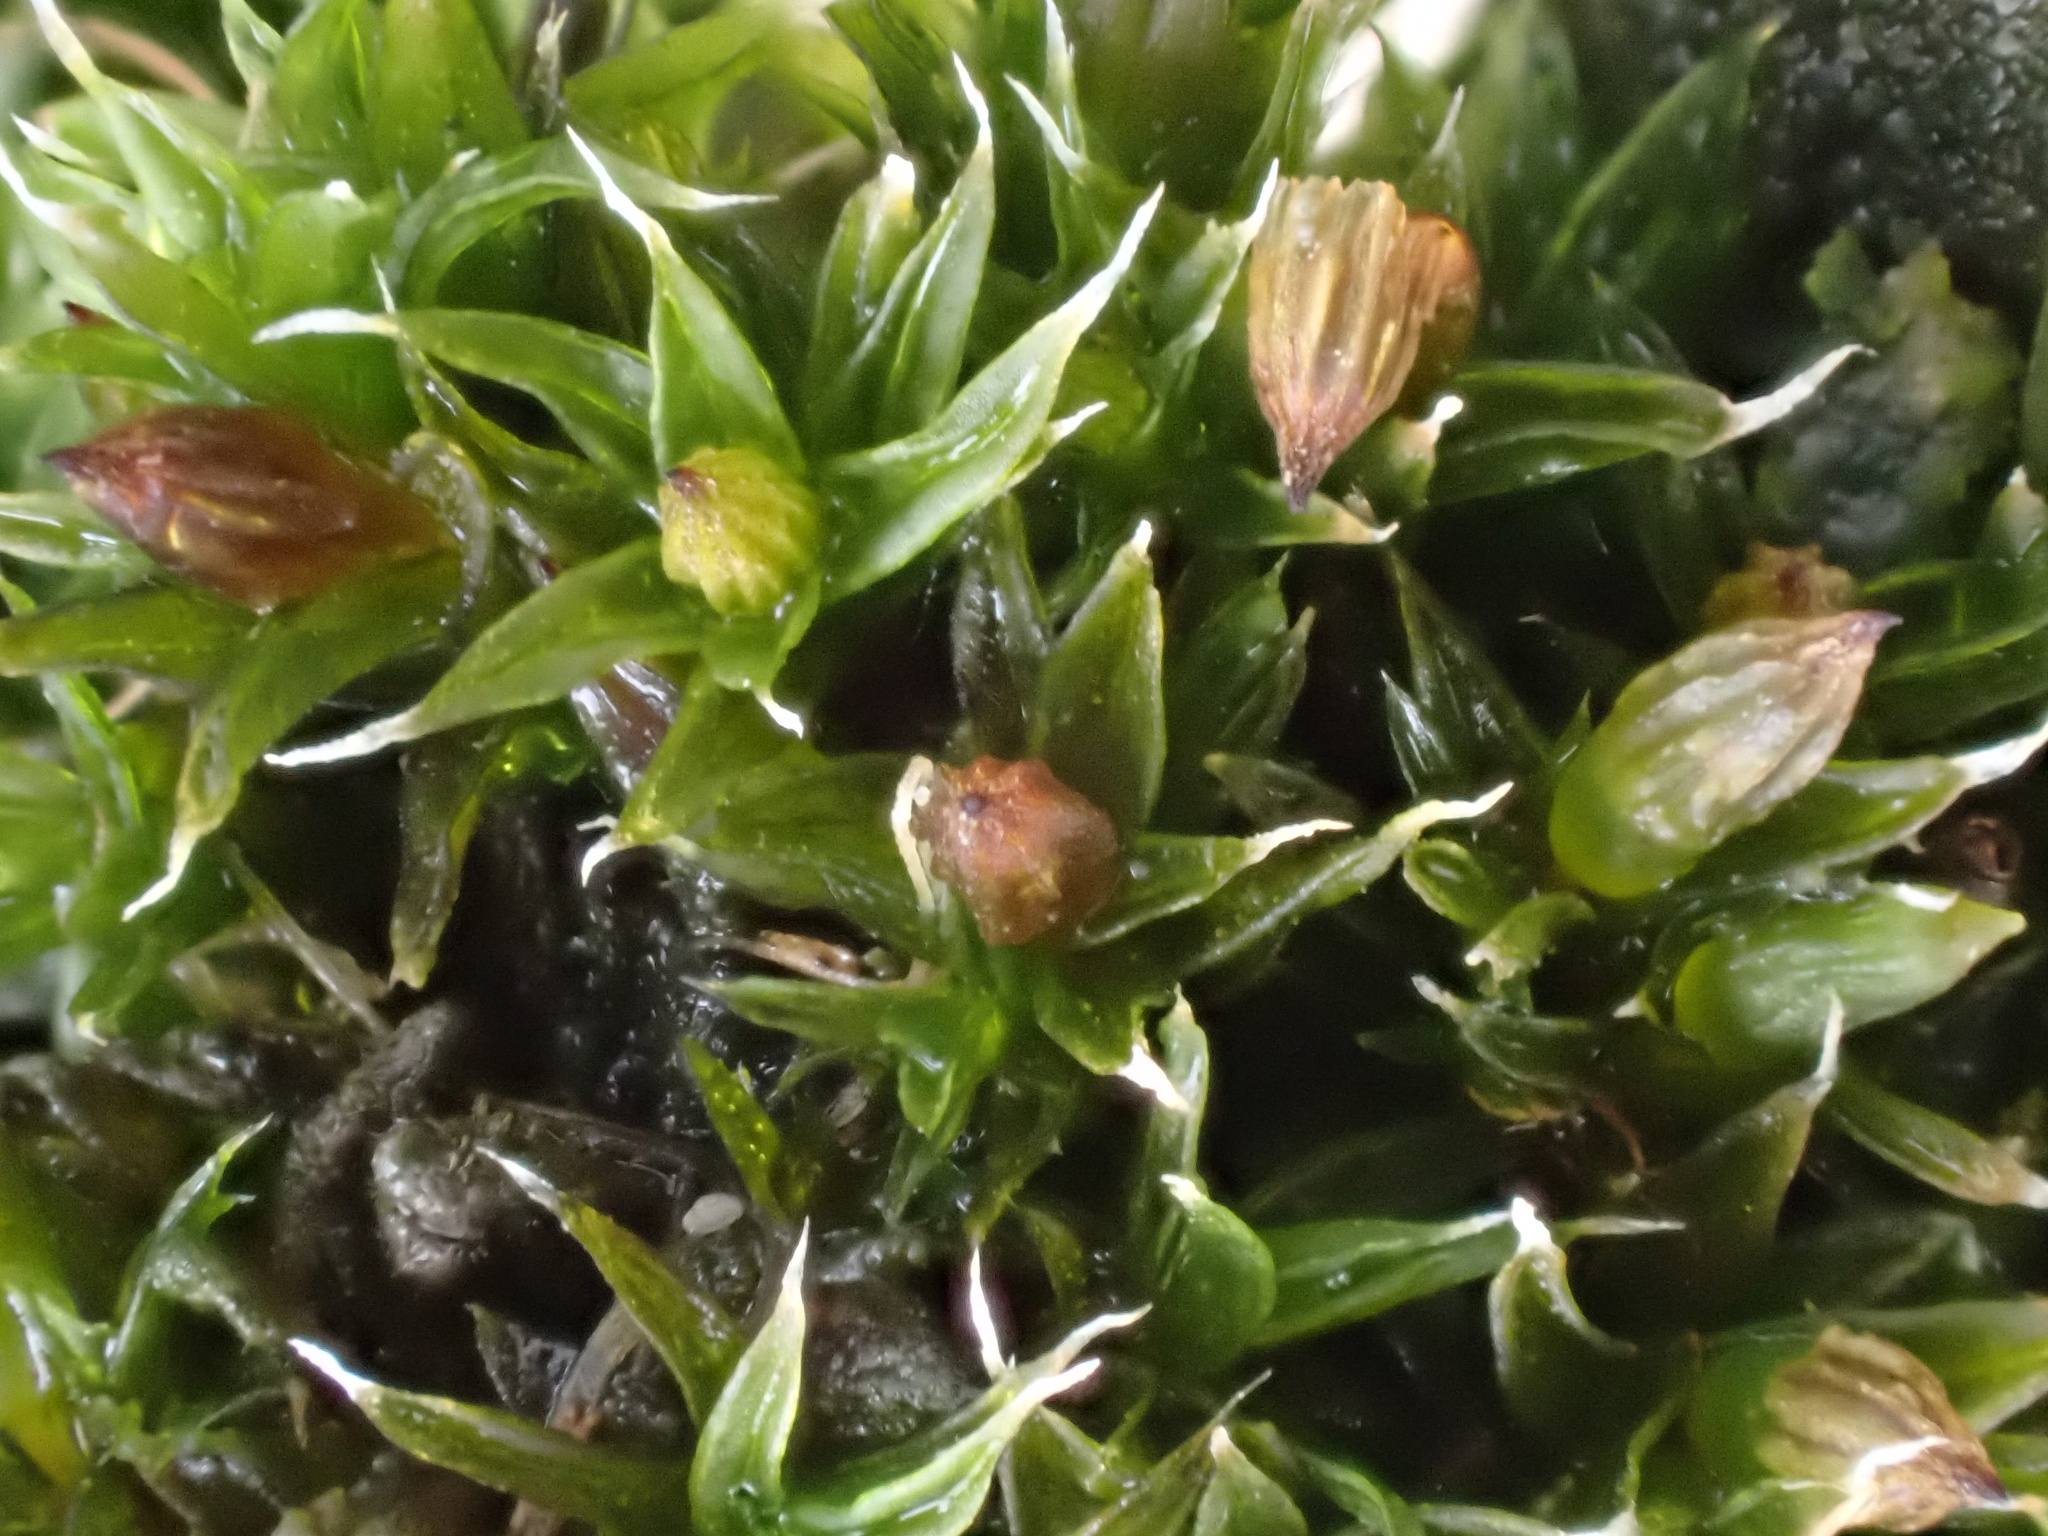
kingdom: Plantae
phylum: Bryophyta
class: Bryopsida
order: Orthotrichales
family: Orthotrichaceae
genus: Orthotrichum
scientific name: Orthotrichum diaphanum
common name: White-tipped bristle-moss
